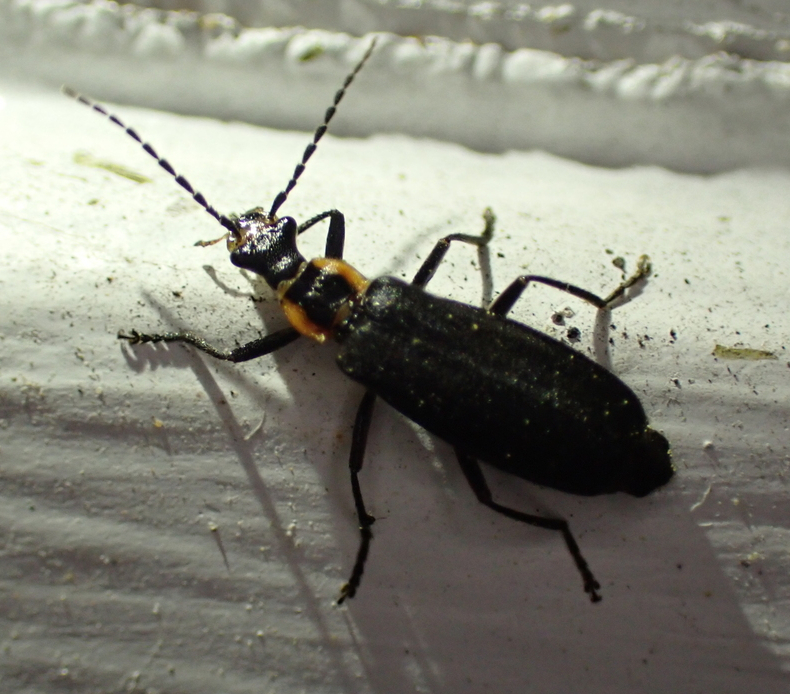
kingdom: Animalia
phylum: Arthropoda
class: Insecta
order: Coleoptera
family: Cantharidae
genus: Podabrus
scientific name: Podabrus rugosulus
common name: Wrinkled soldier beetle
